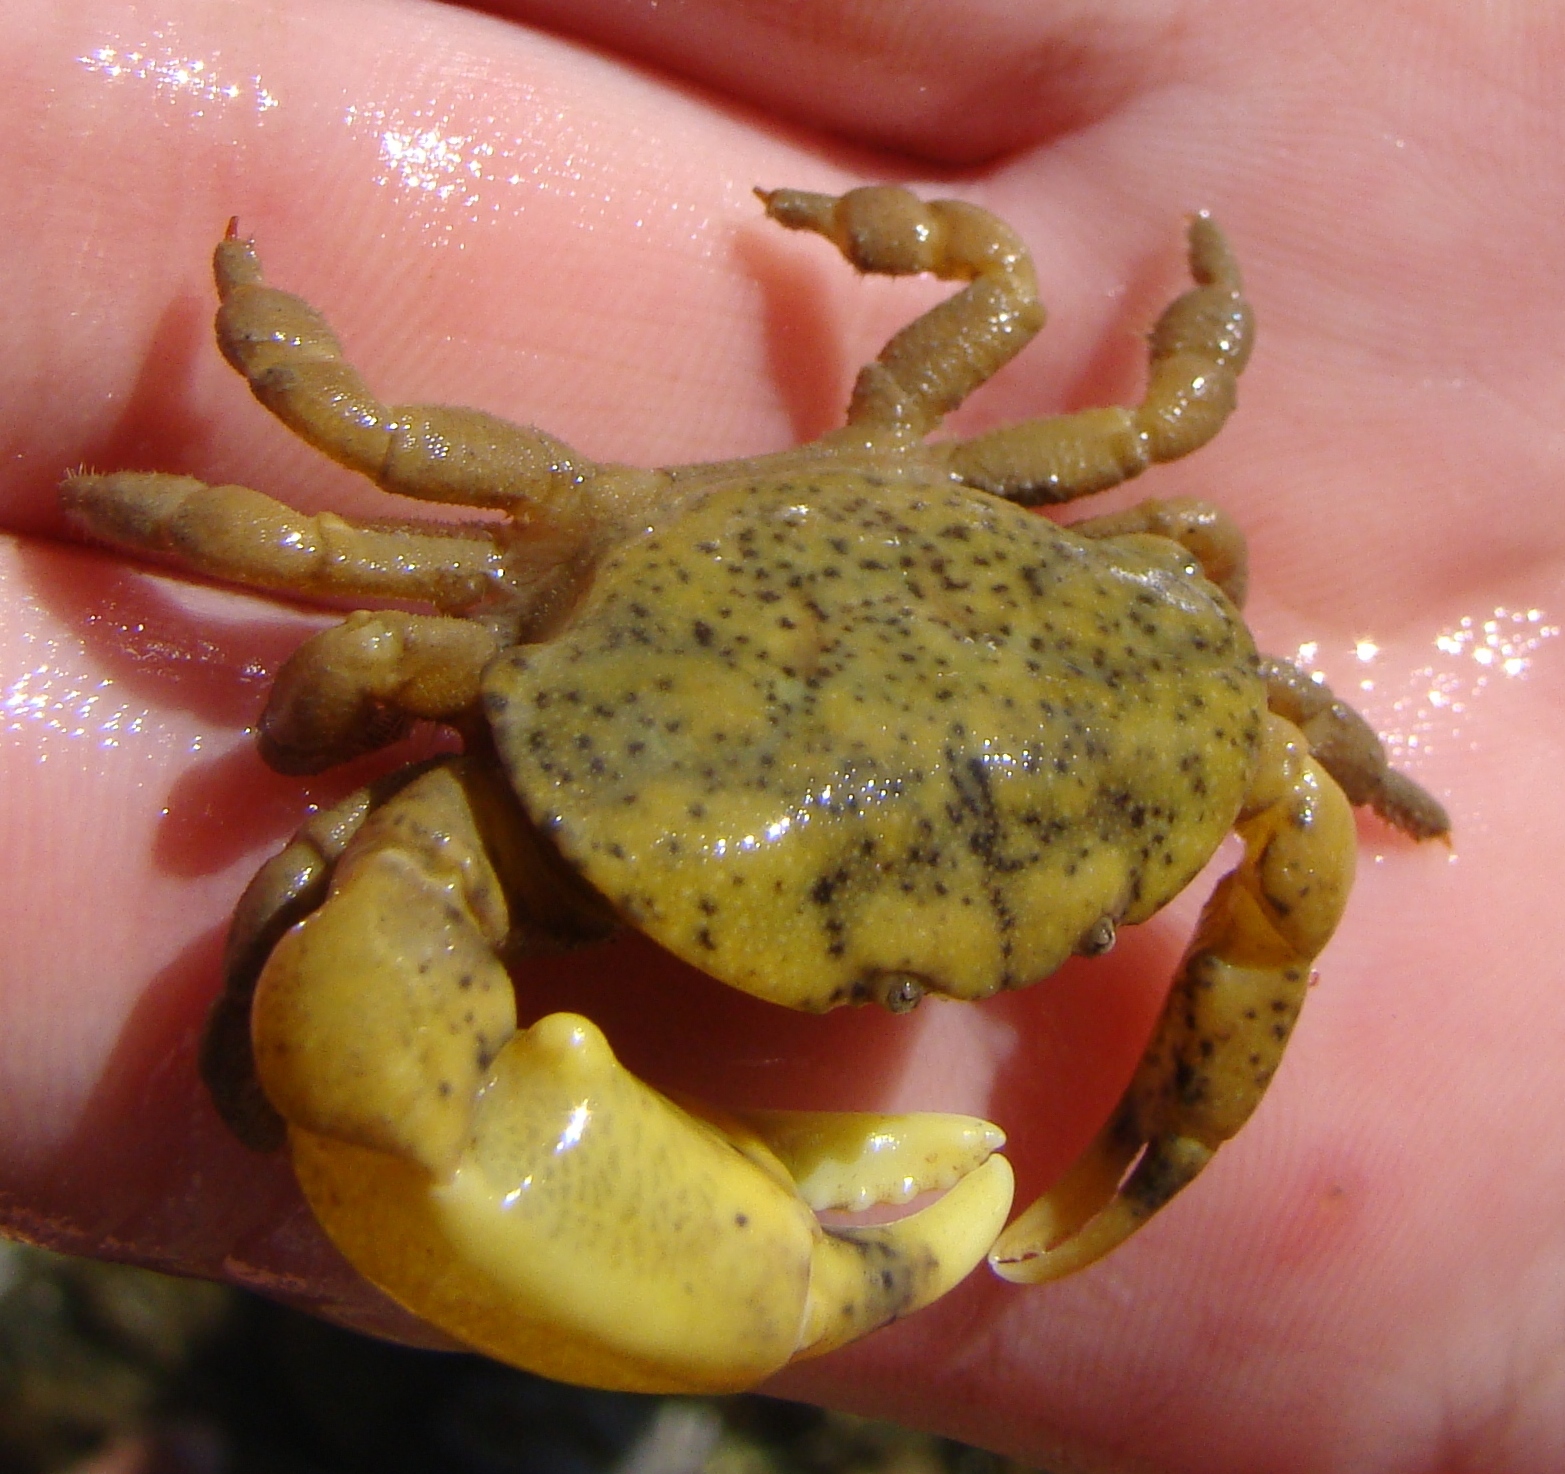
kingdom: Animalia
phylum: Arthropoda
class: Malacostraca
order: Decapoda
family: Heteroziidae
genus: Heterozius
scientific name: Heterozius rotundifrons
